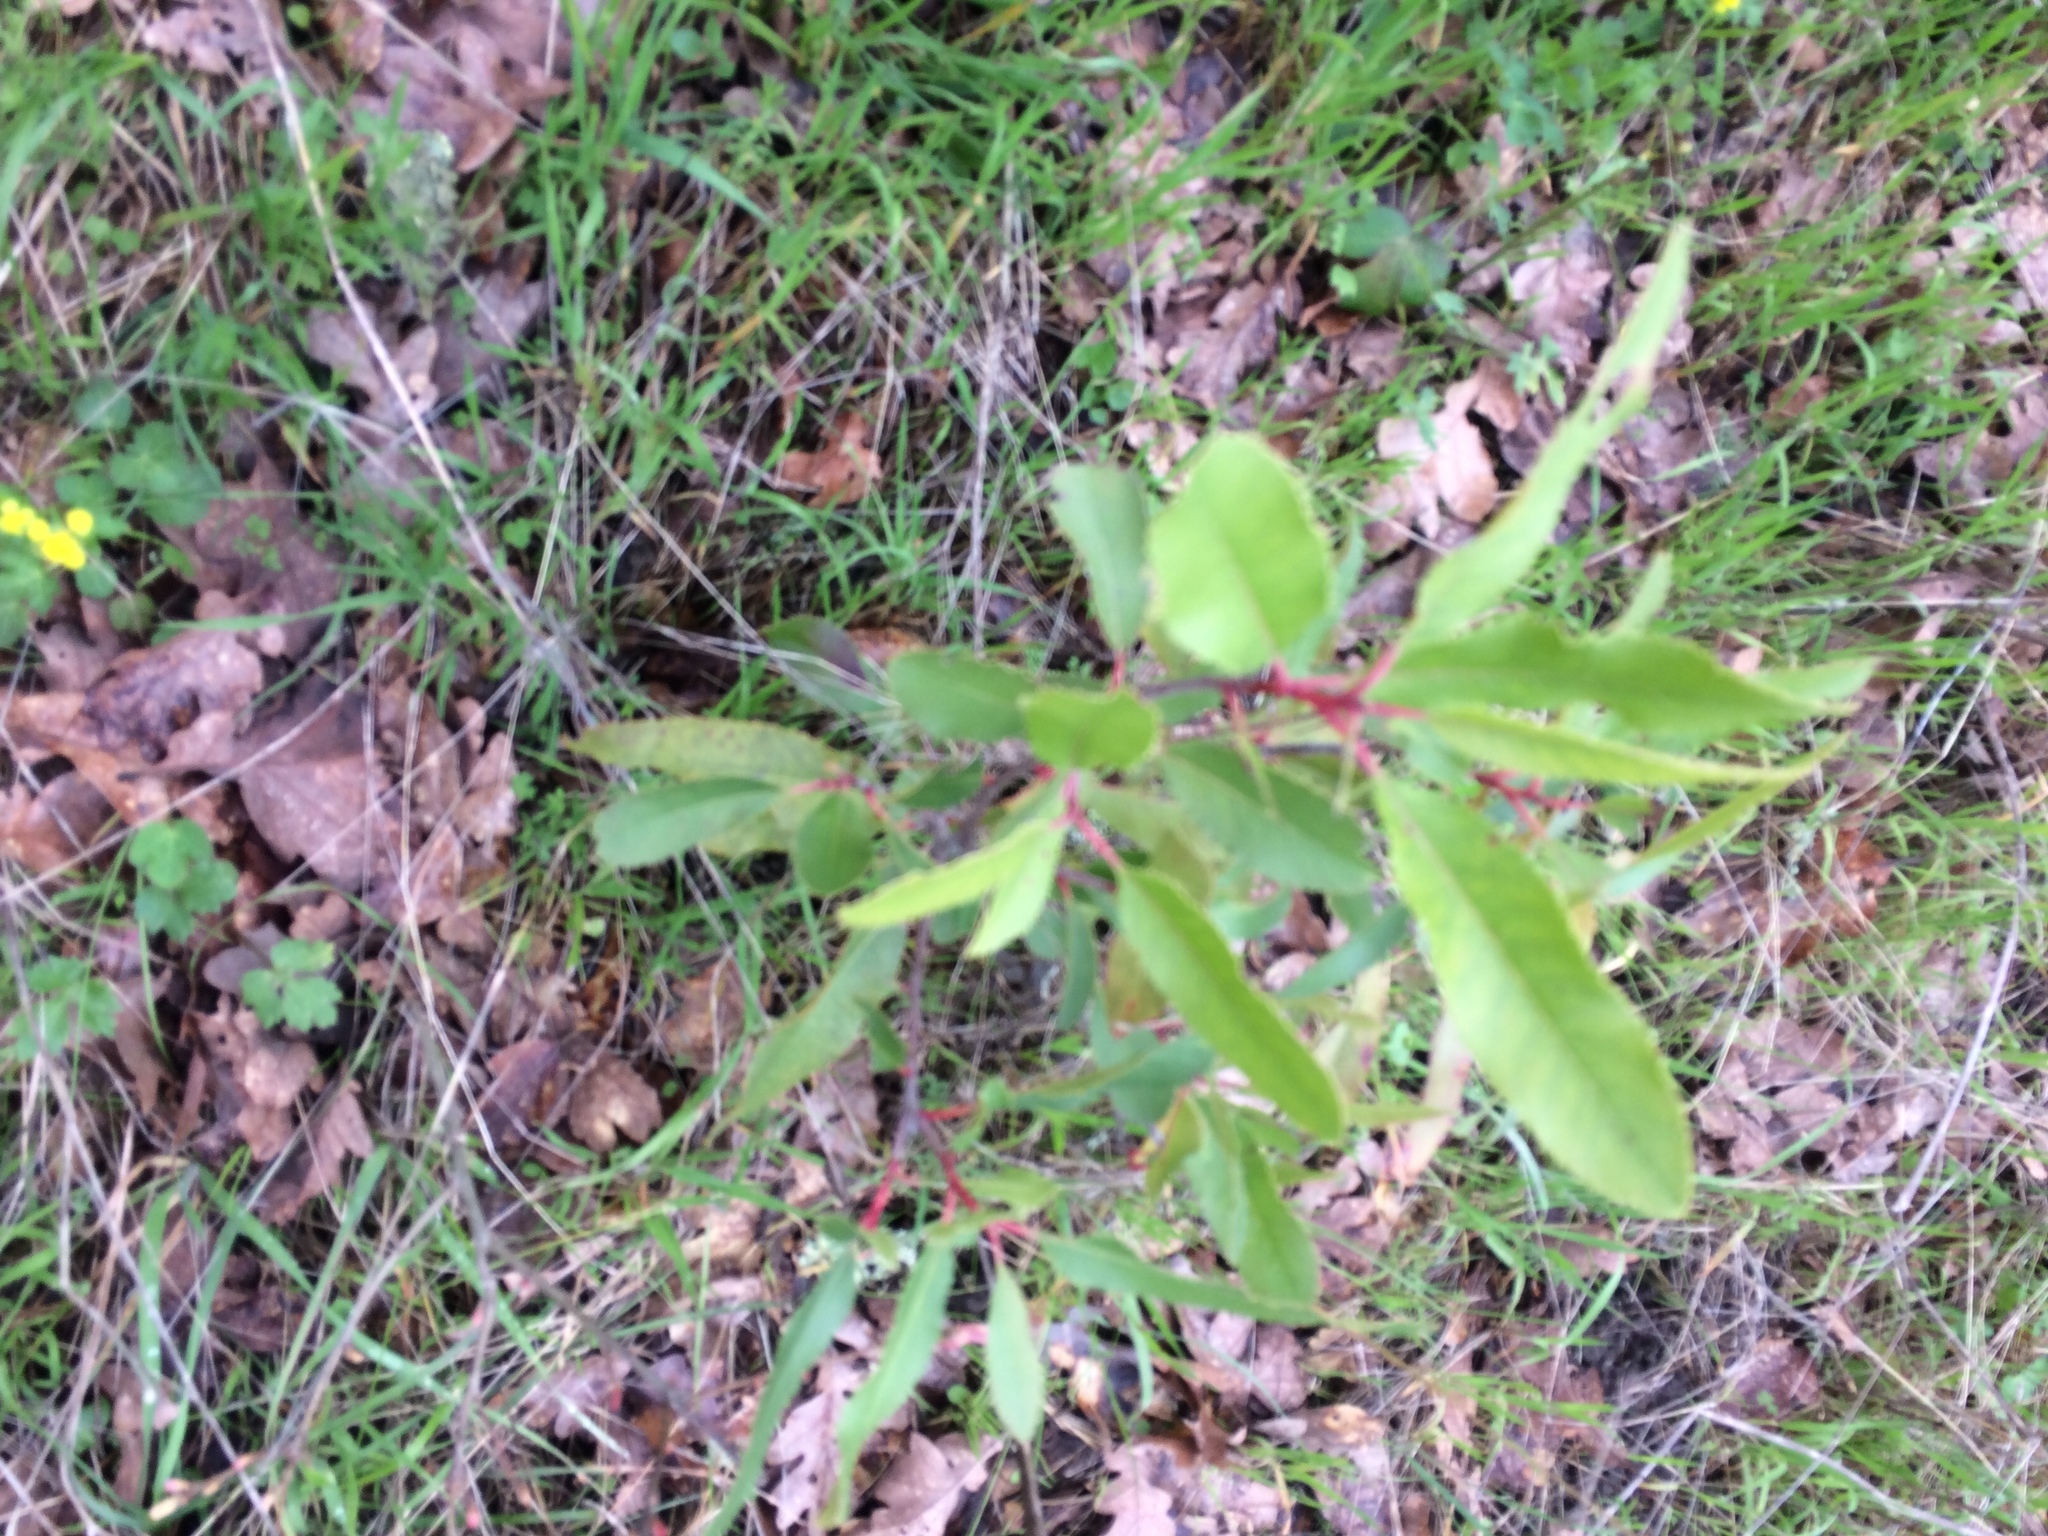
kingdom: Plantae
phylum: Tracheophyta
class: Magnoliopsida
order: Rosales
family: Rosaceae
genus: Heteromeles
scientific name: Heteromeles arbutifolia
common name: California-holly
